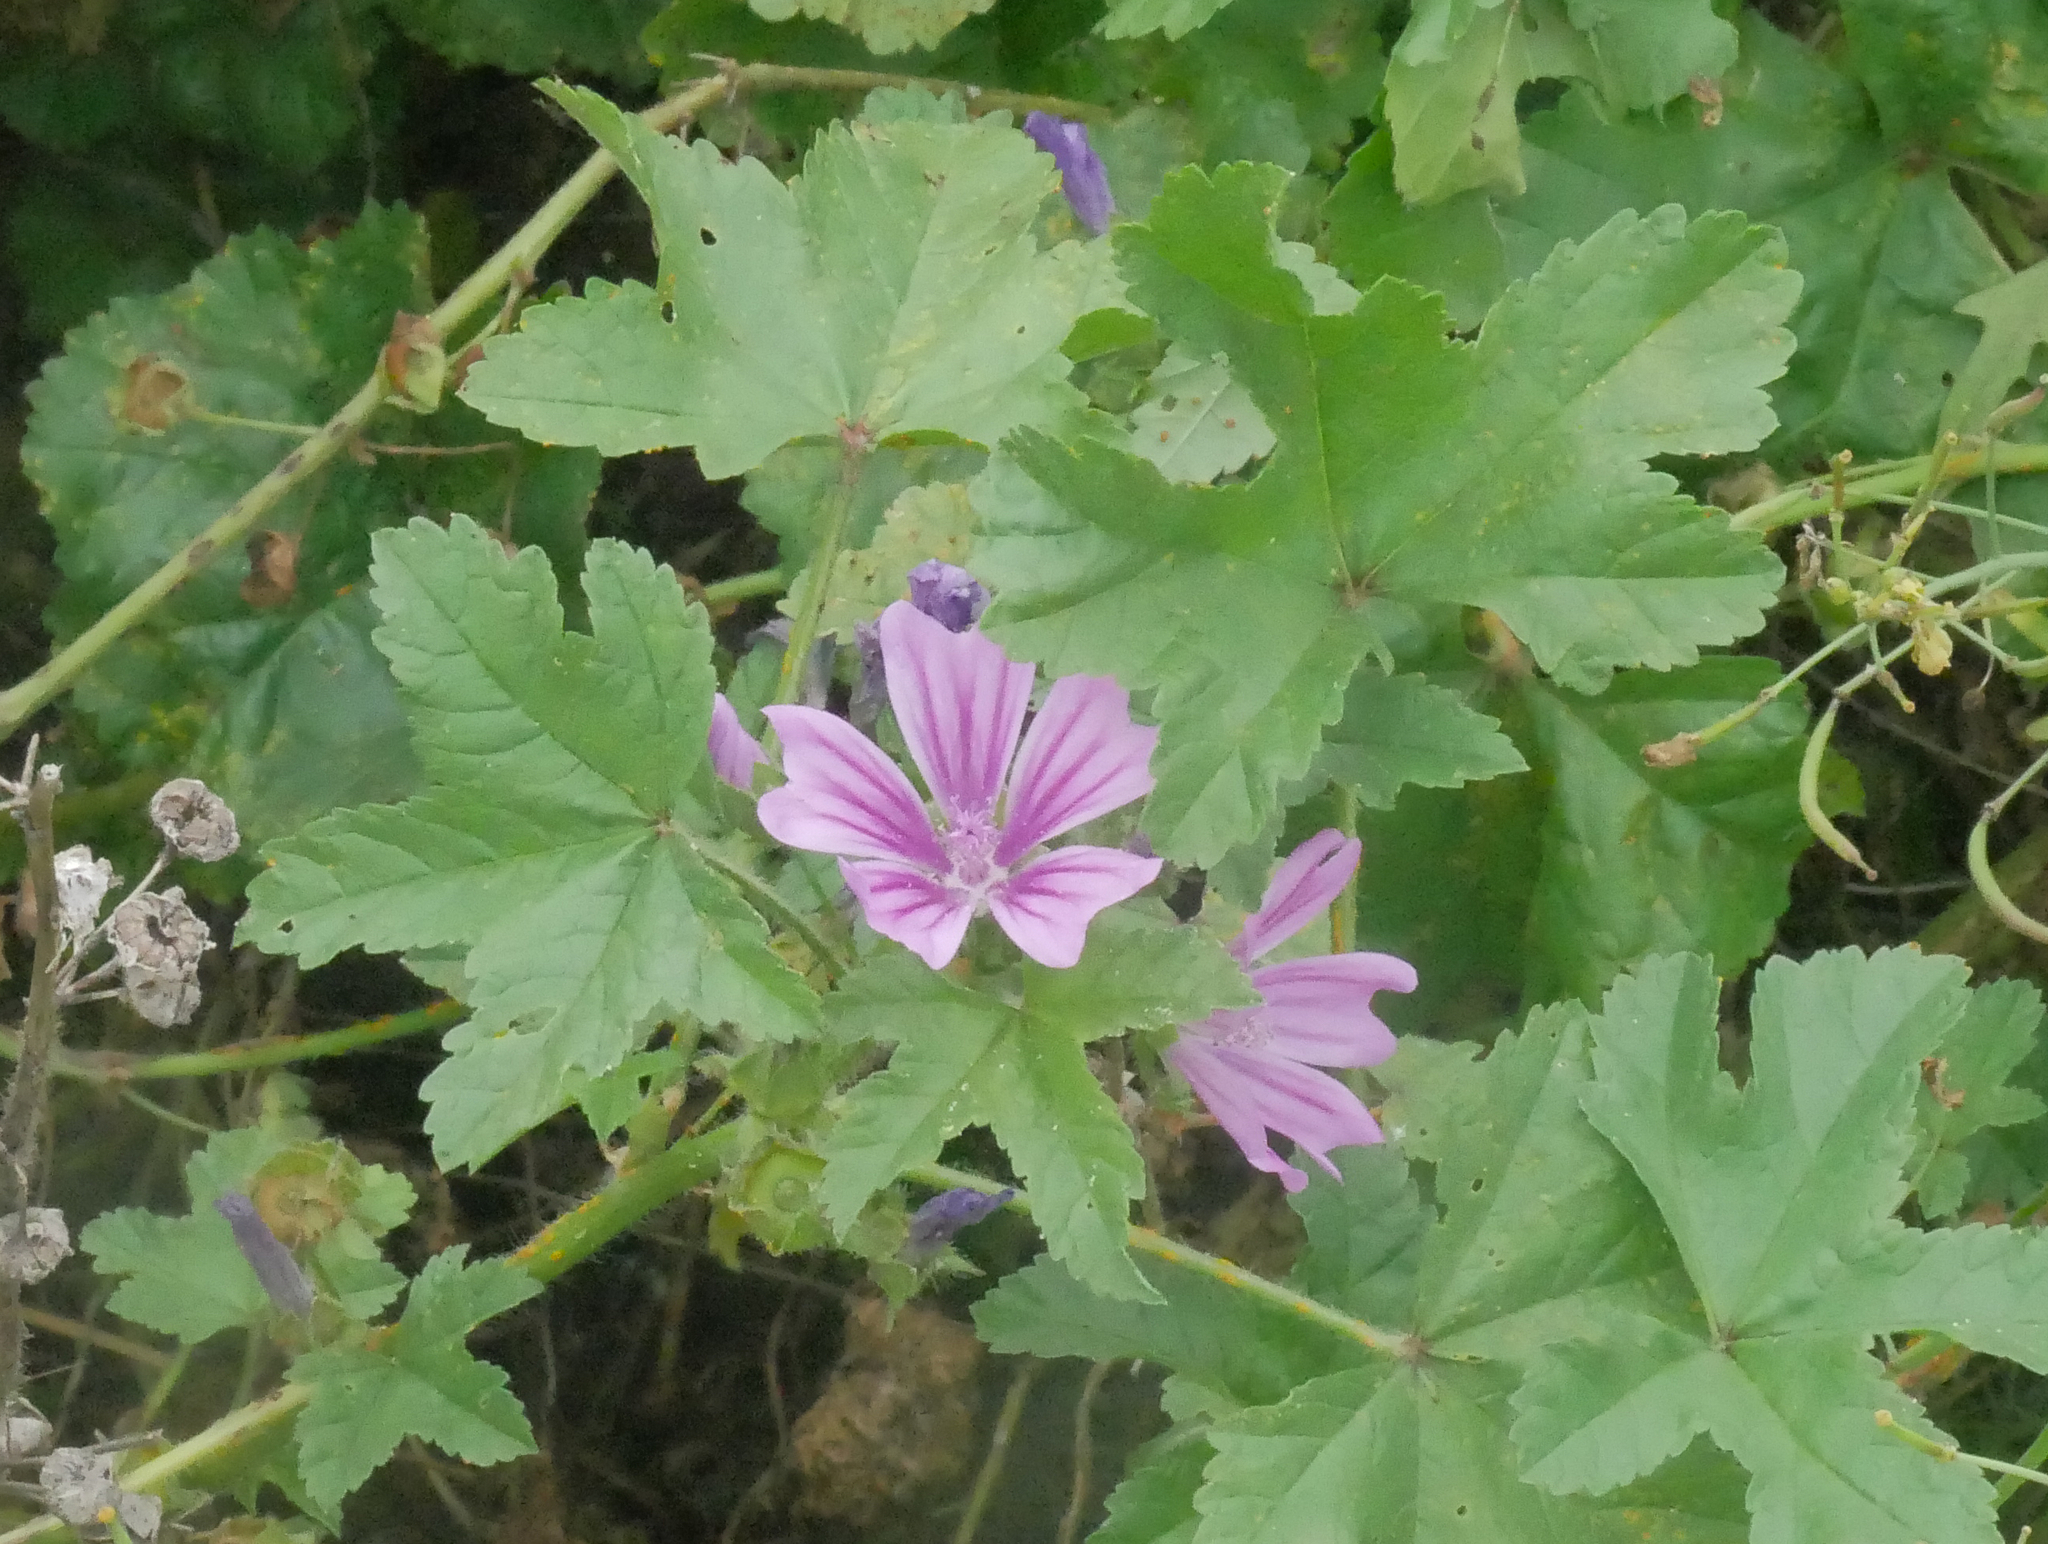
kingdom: Plantae
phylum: Tracheophyta
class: Magnoliopsida
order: Malvales
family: Malvaceae
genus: Malva
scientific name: Malva sylvestris
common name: Common mallow
